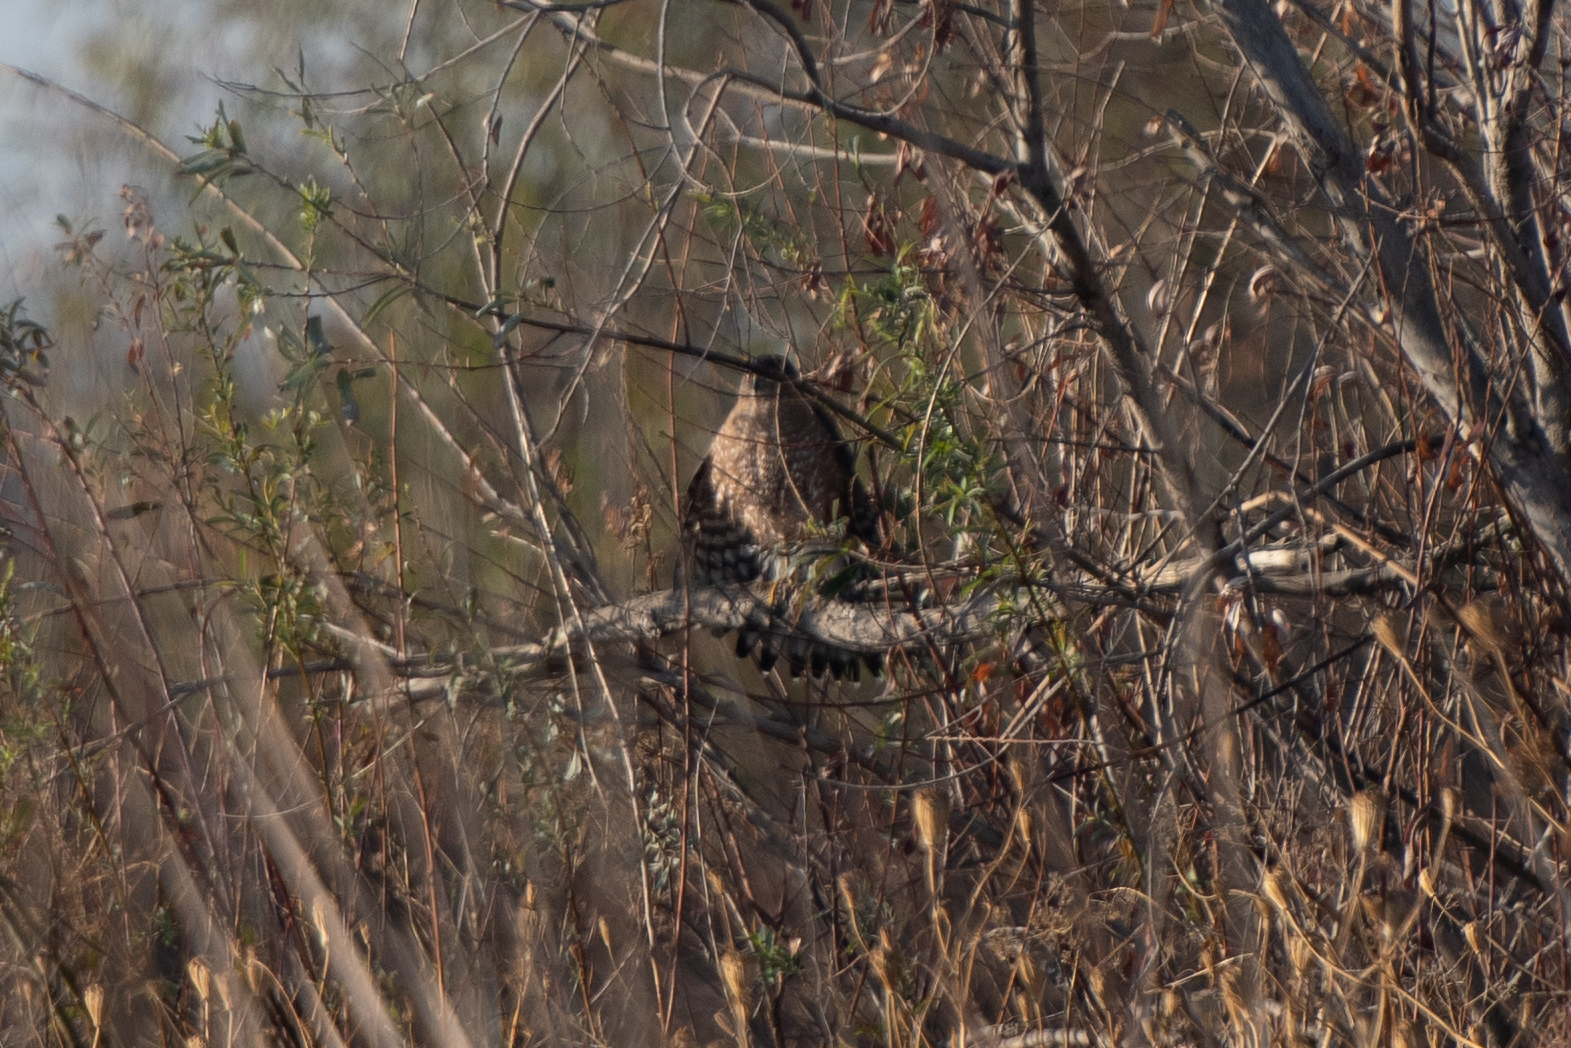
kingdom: Animalia
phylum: Chordata
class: Aves
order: Accipitriformes
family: Accipitridae
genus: Accipiter
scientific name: Accipiter cooperii
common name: Cooper's hawk
